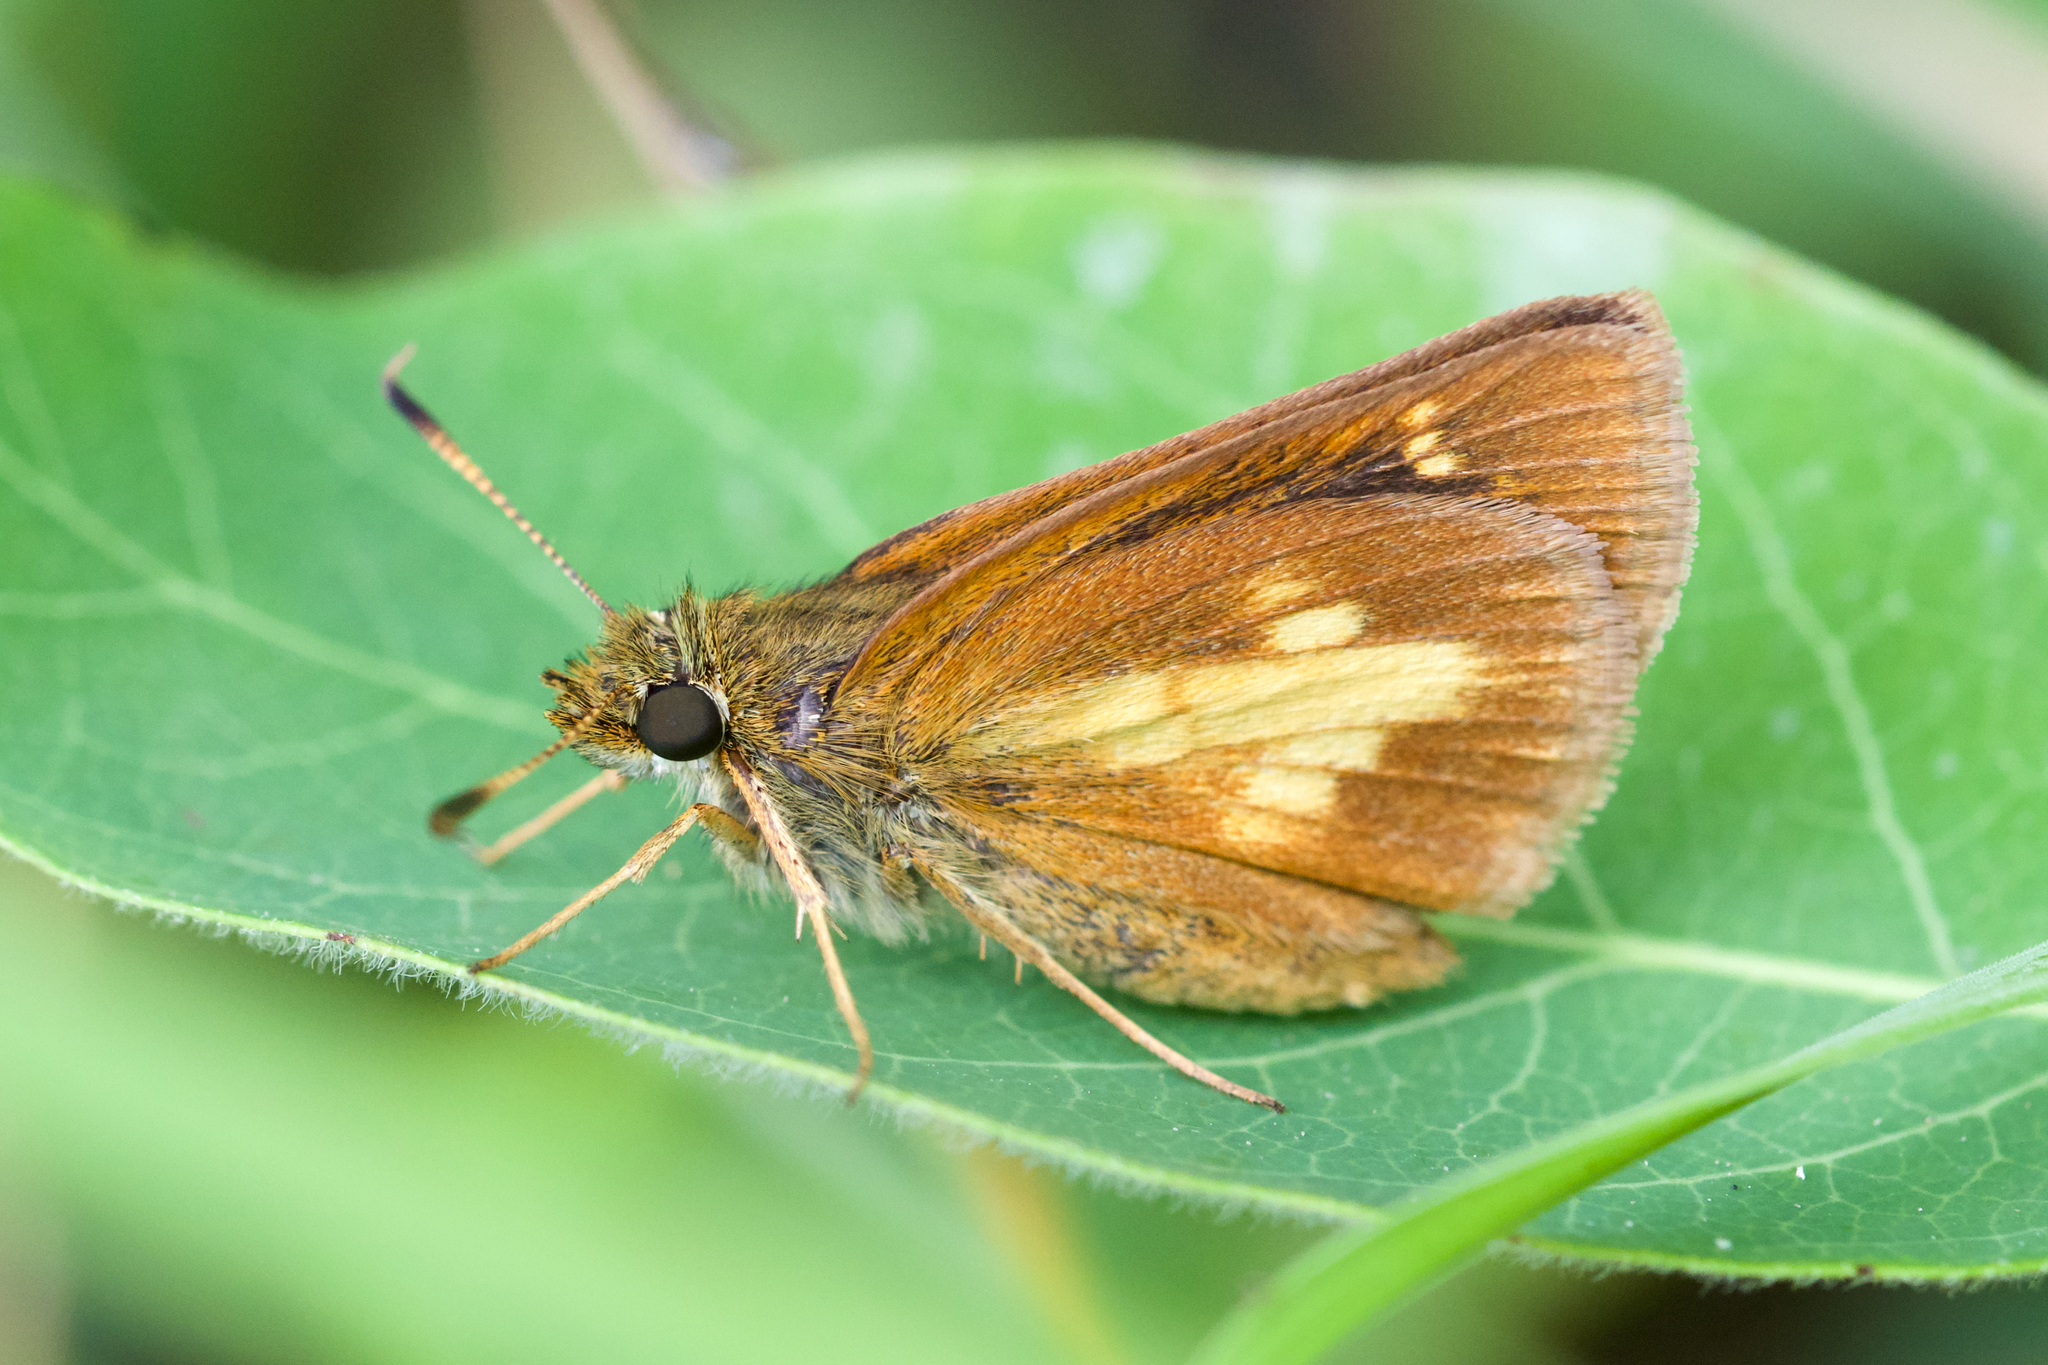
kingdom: Animalia
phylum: Arthropoda
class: Insecta
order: Lepidoptera
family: Hesperiidae
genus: Poanes
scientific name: Poanes massasoit
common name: Mulberrywing
